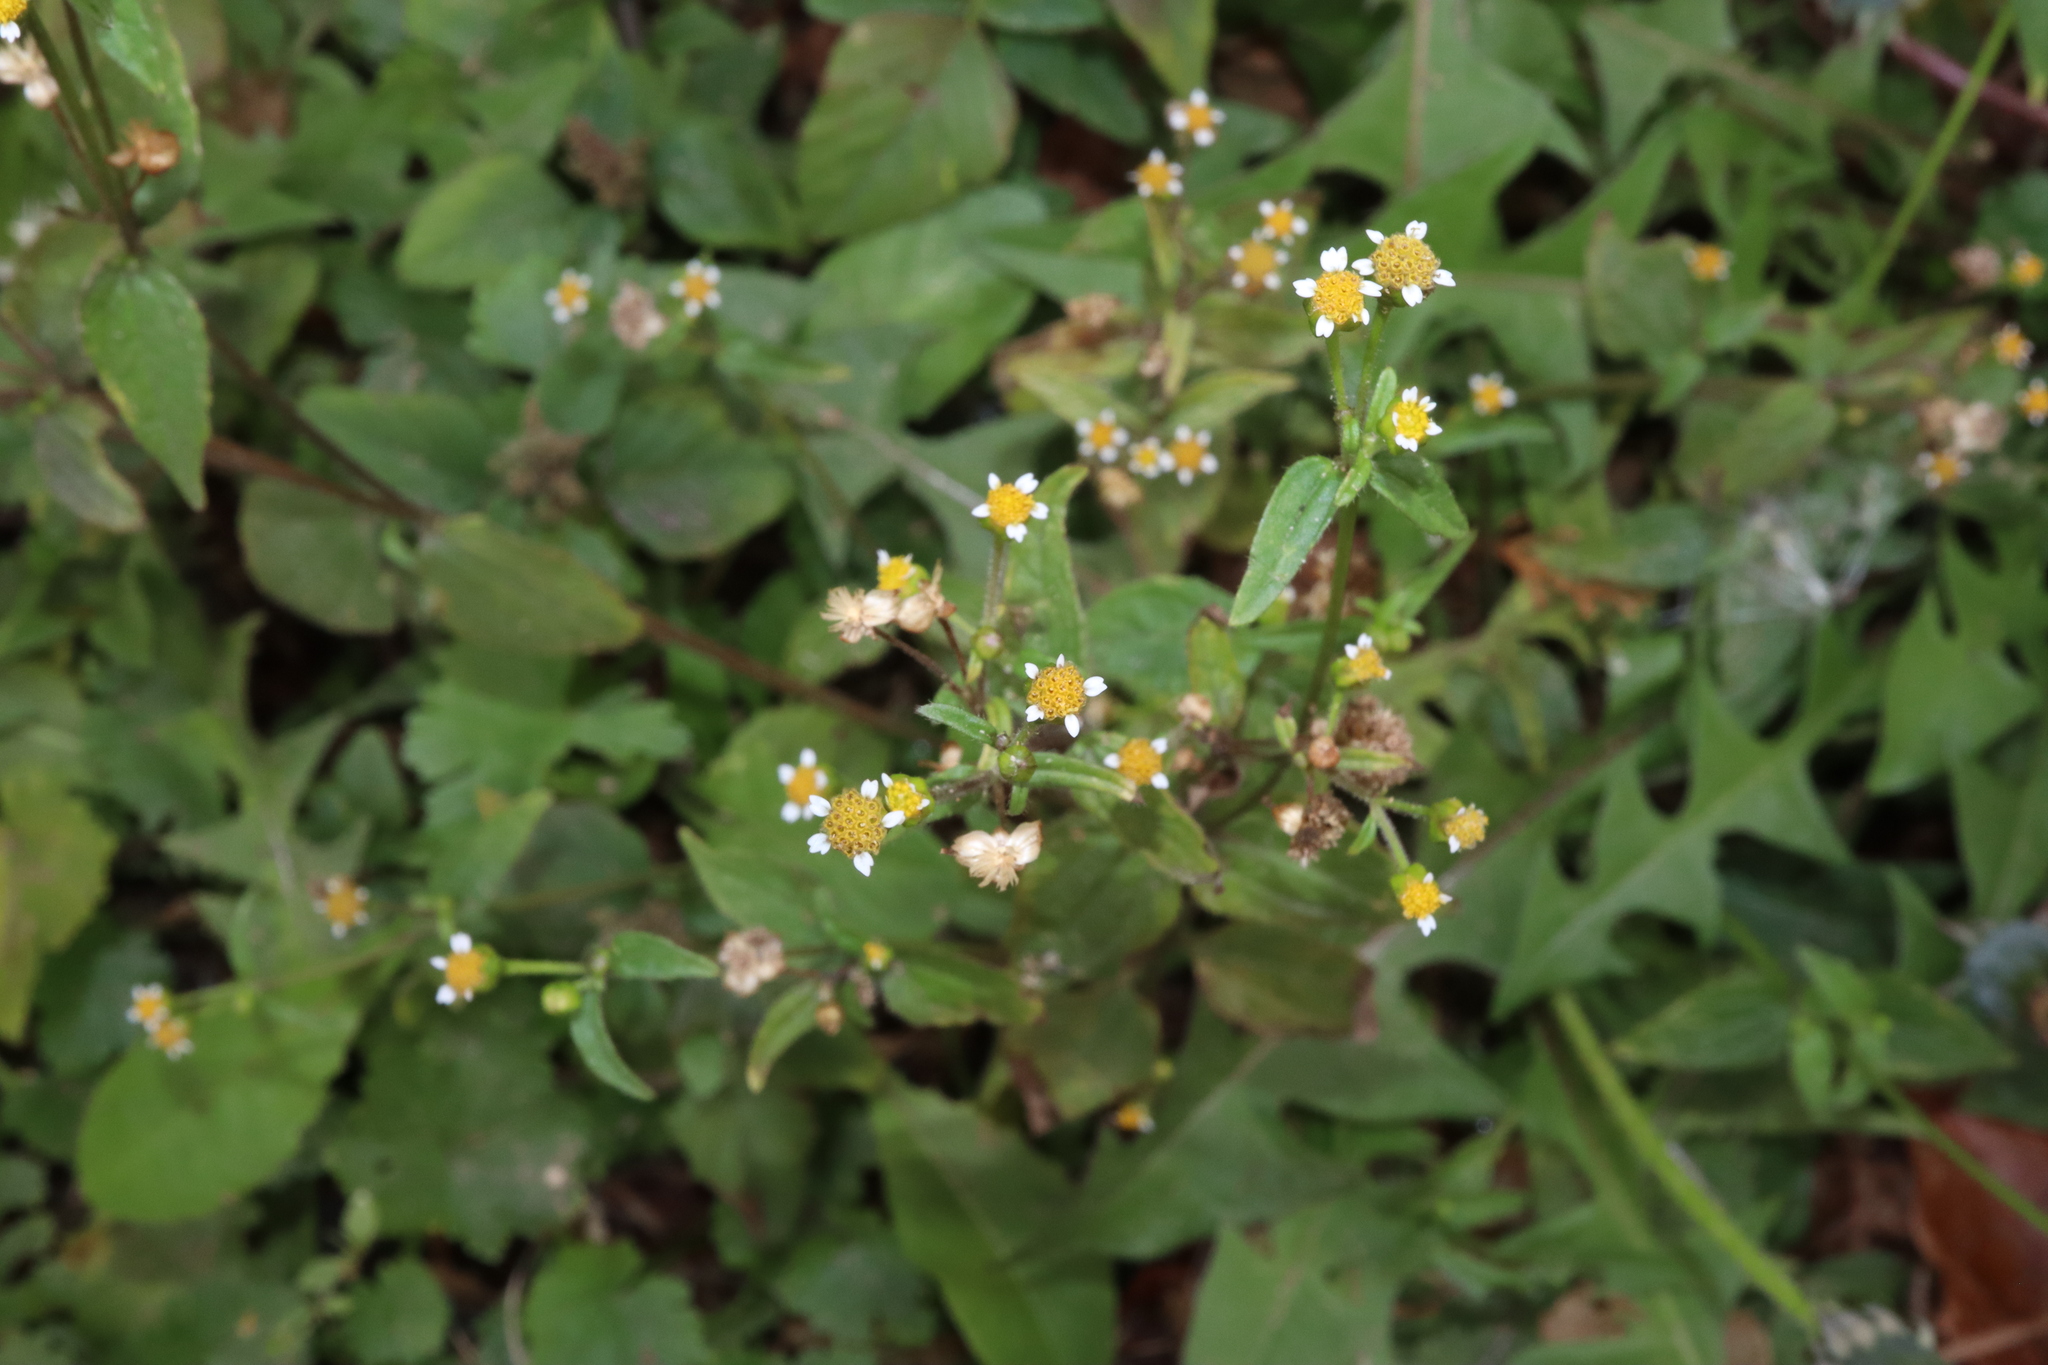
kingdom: Plantae
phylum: Tracheophyta
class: Magnoliopsida
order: Asterales
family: Asteraceae
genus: Galinsoga
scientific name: Galinsoga parviflora
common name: Gallant soldier
